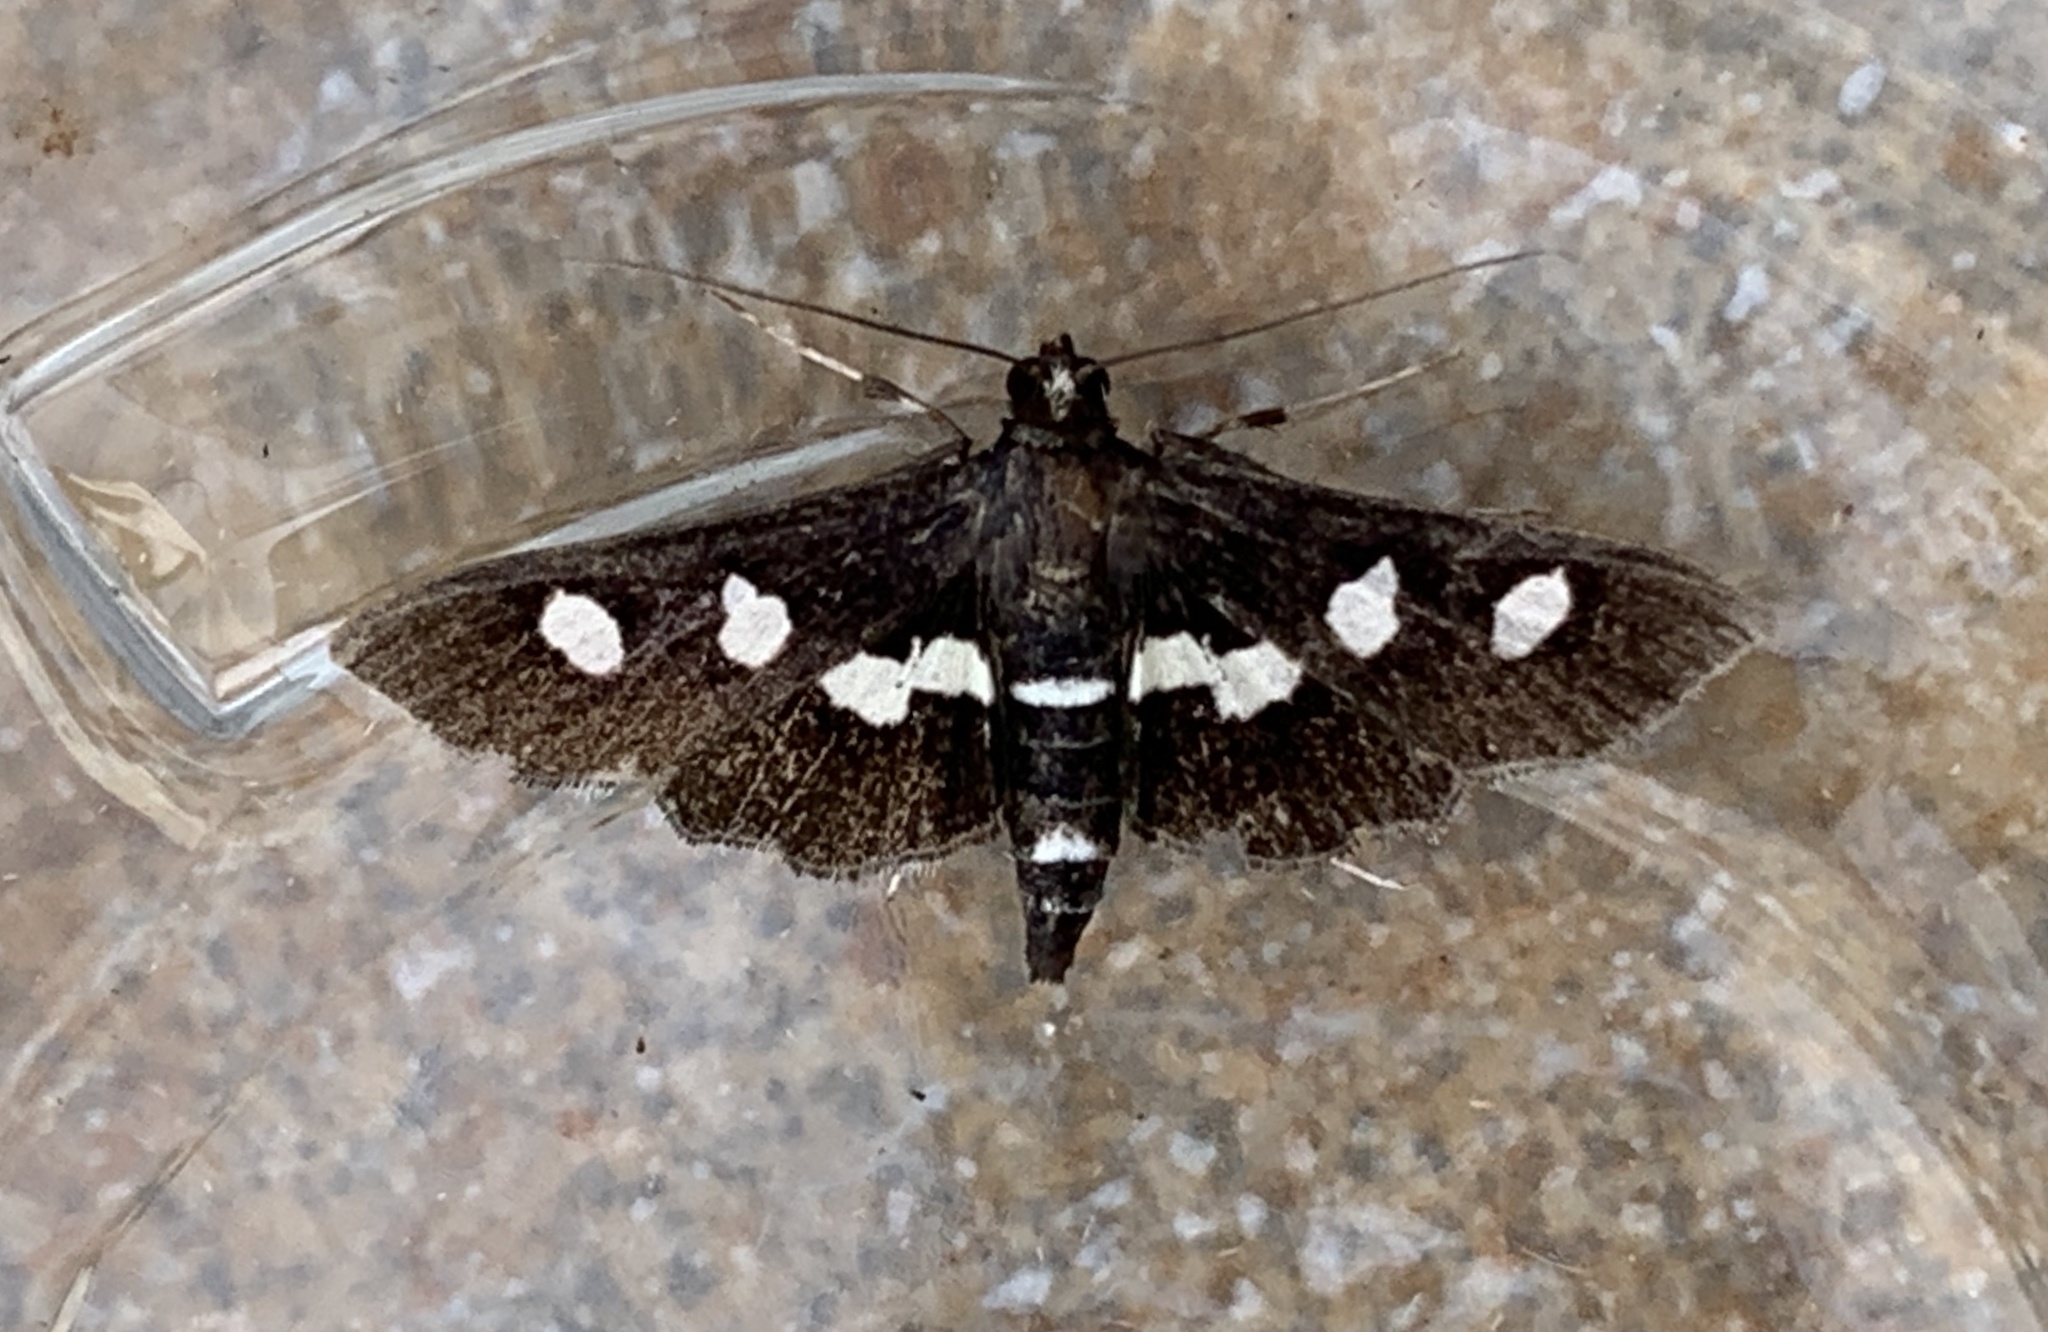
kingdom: Animalia
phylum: Arthropoda
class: Insecta
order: Lepidoptera
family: Crambidae
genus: Desmia
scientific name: Desmia funeralis
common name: Grape leaf folder moth
